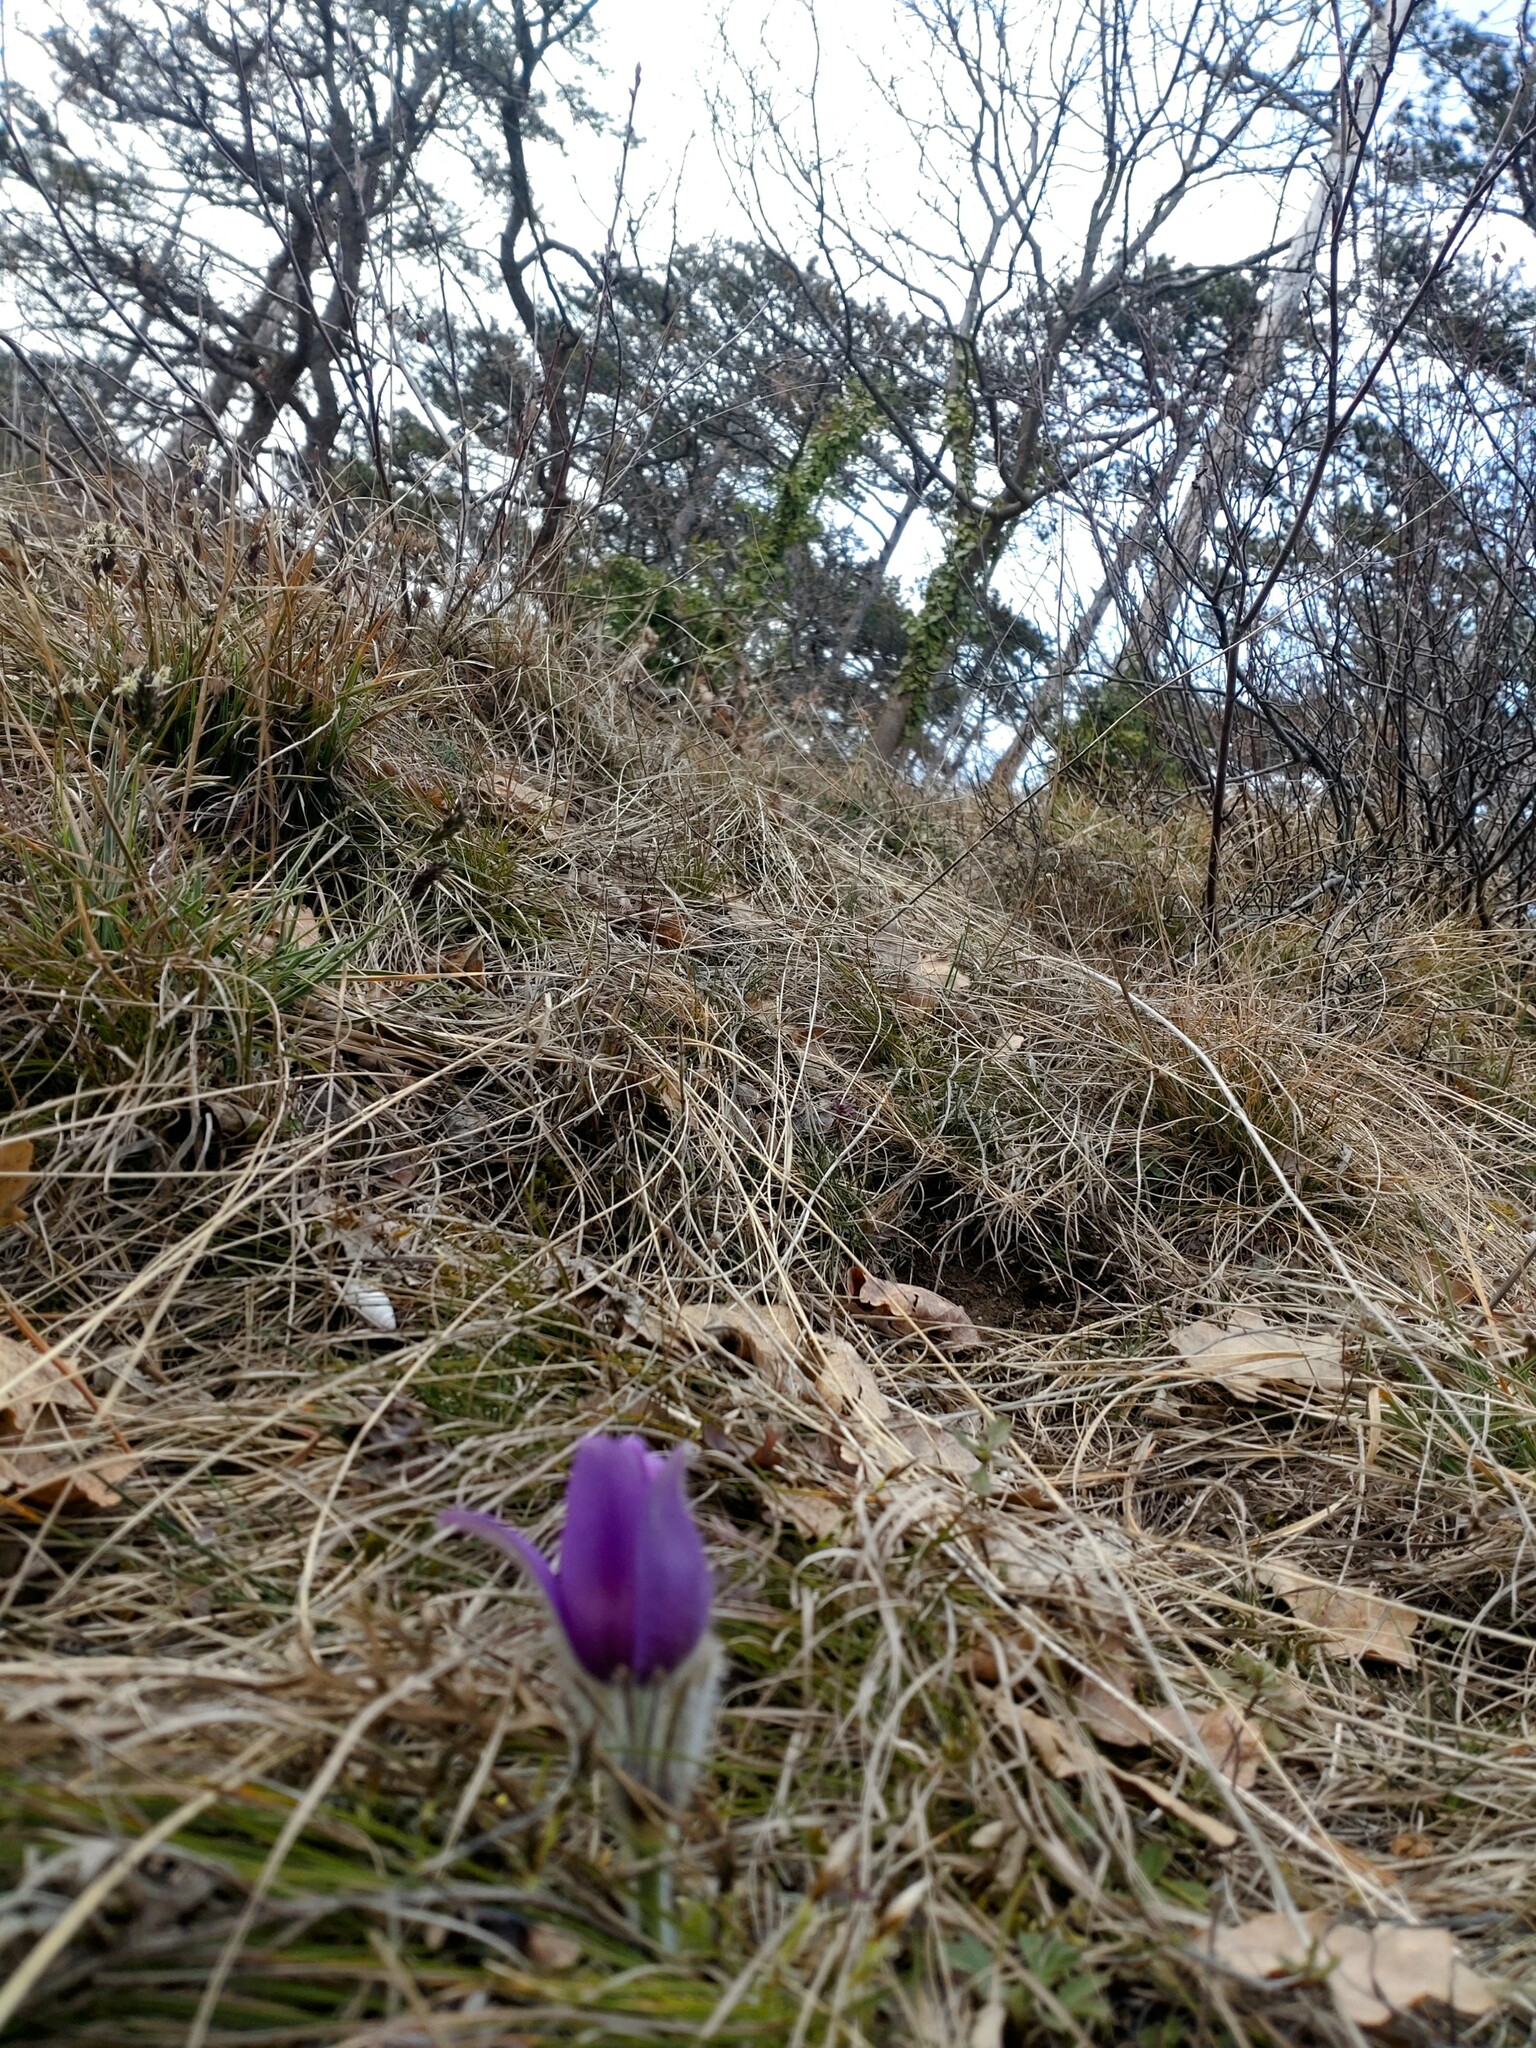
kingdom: Plantae
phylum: Tracheophyta
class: Magnoliopsida
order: Ranunculales
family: Ranunculaceae
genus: Pulsatilla
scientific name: Pulsatilla grandis
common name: Greater pasque flower
